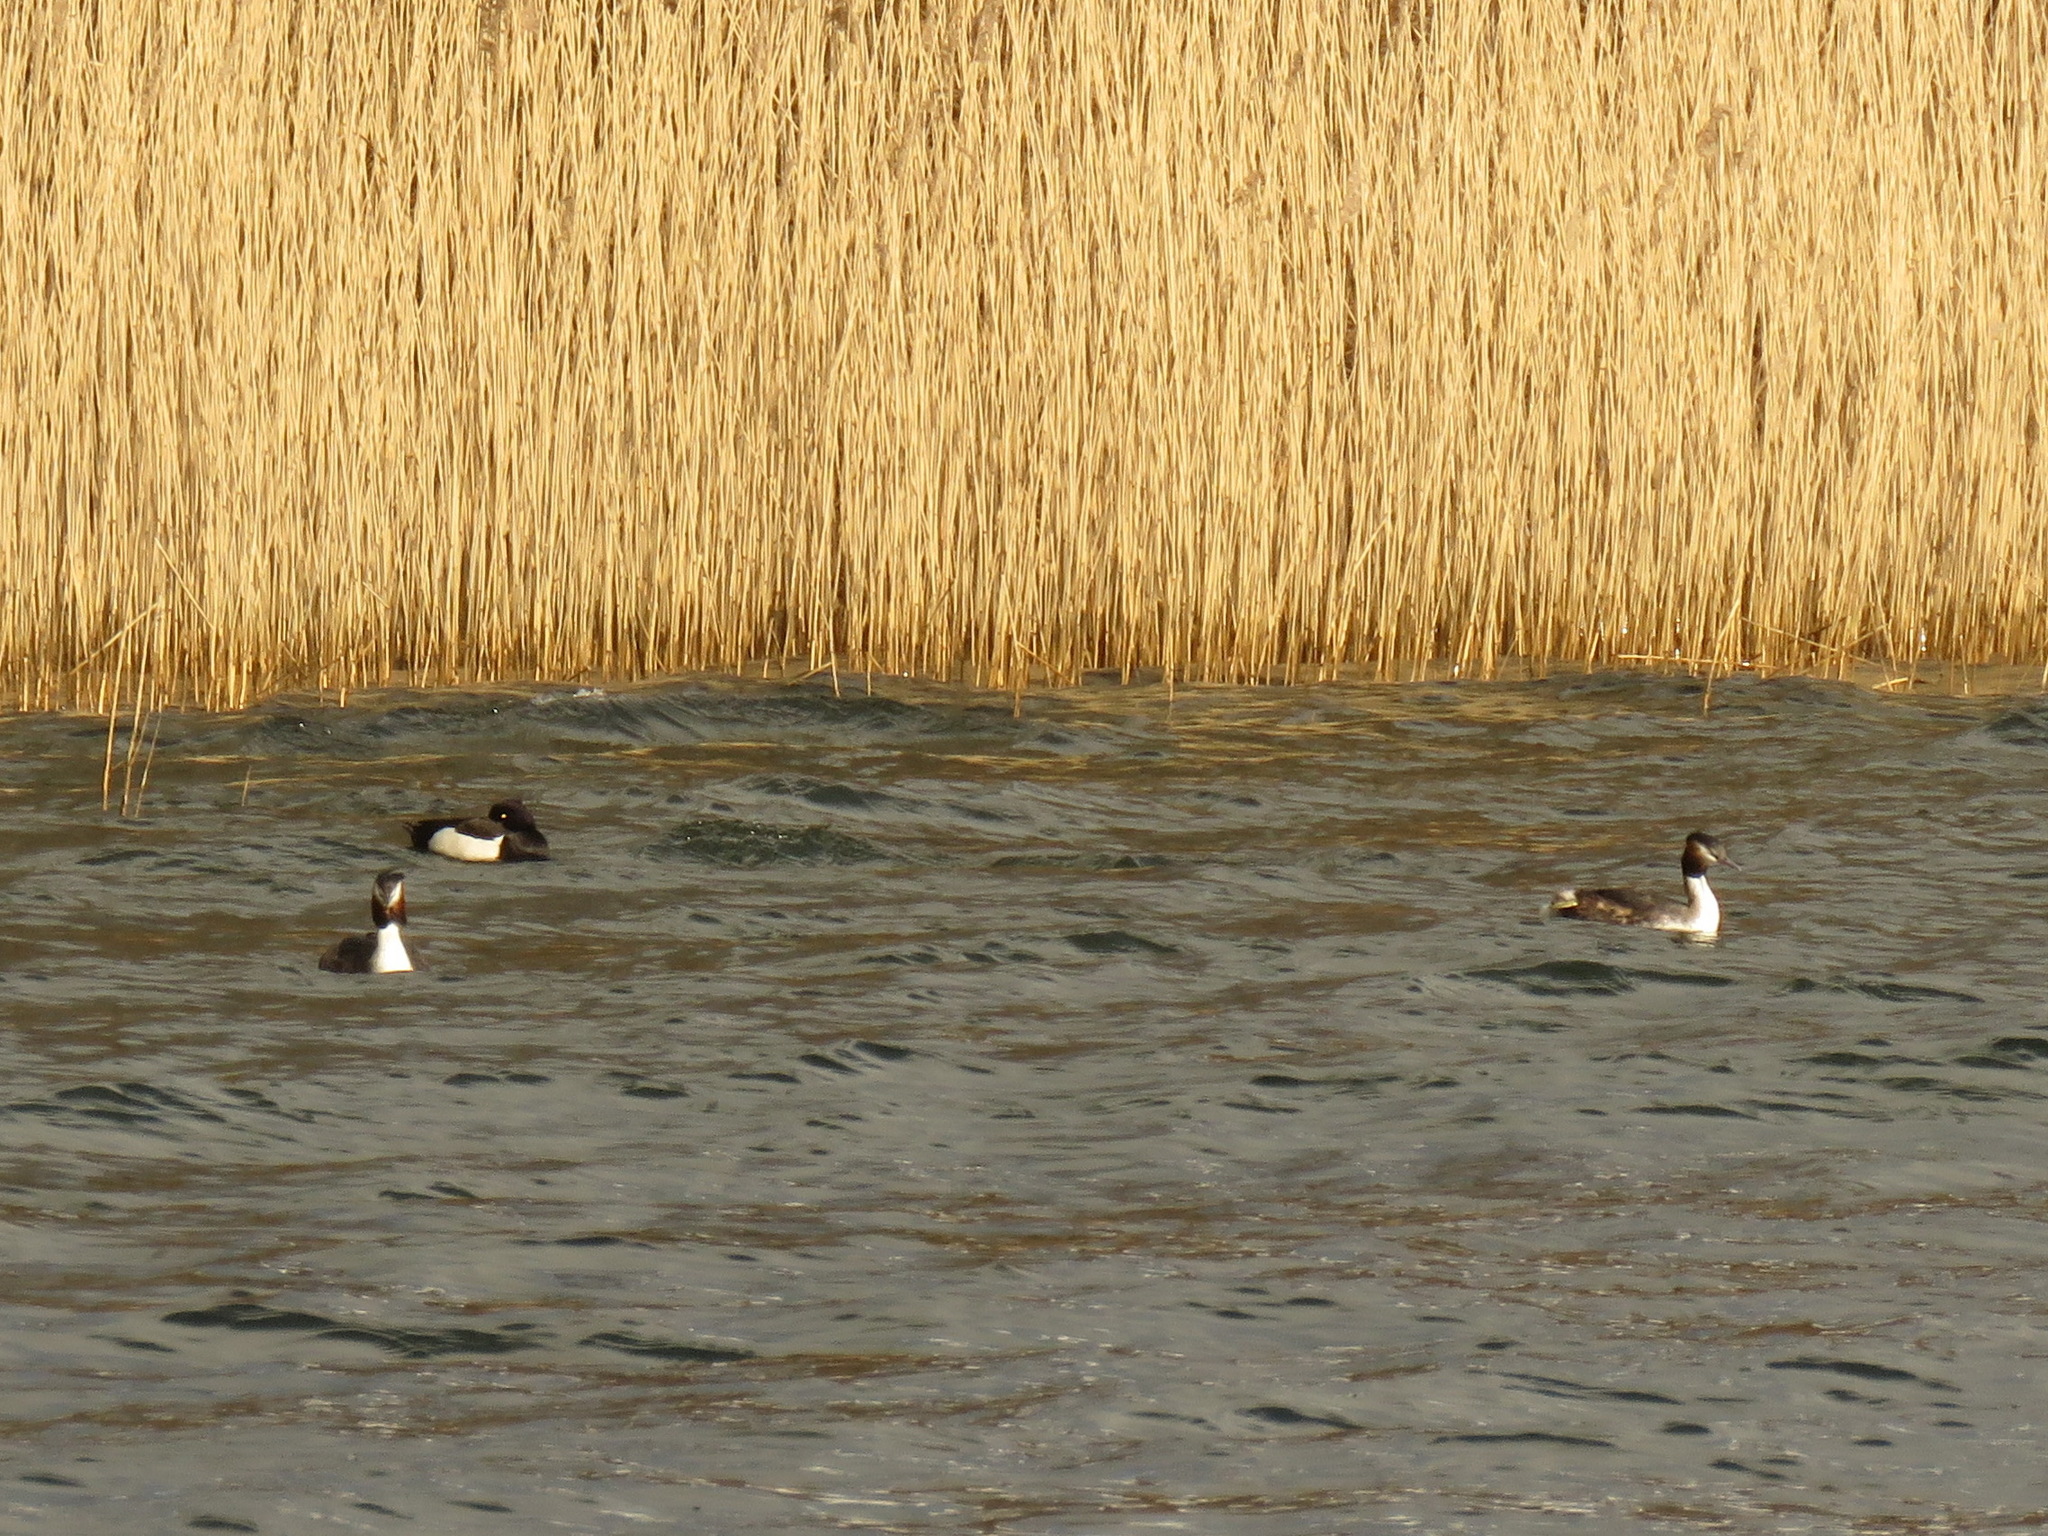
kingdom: Animalia
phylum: Chordata
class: Aves
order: Anseriformes
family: Anatidae
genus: Aythya
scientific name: Aythya fuligula
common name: Tufted duck
